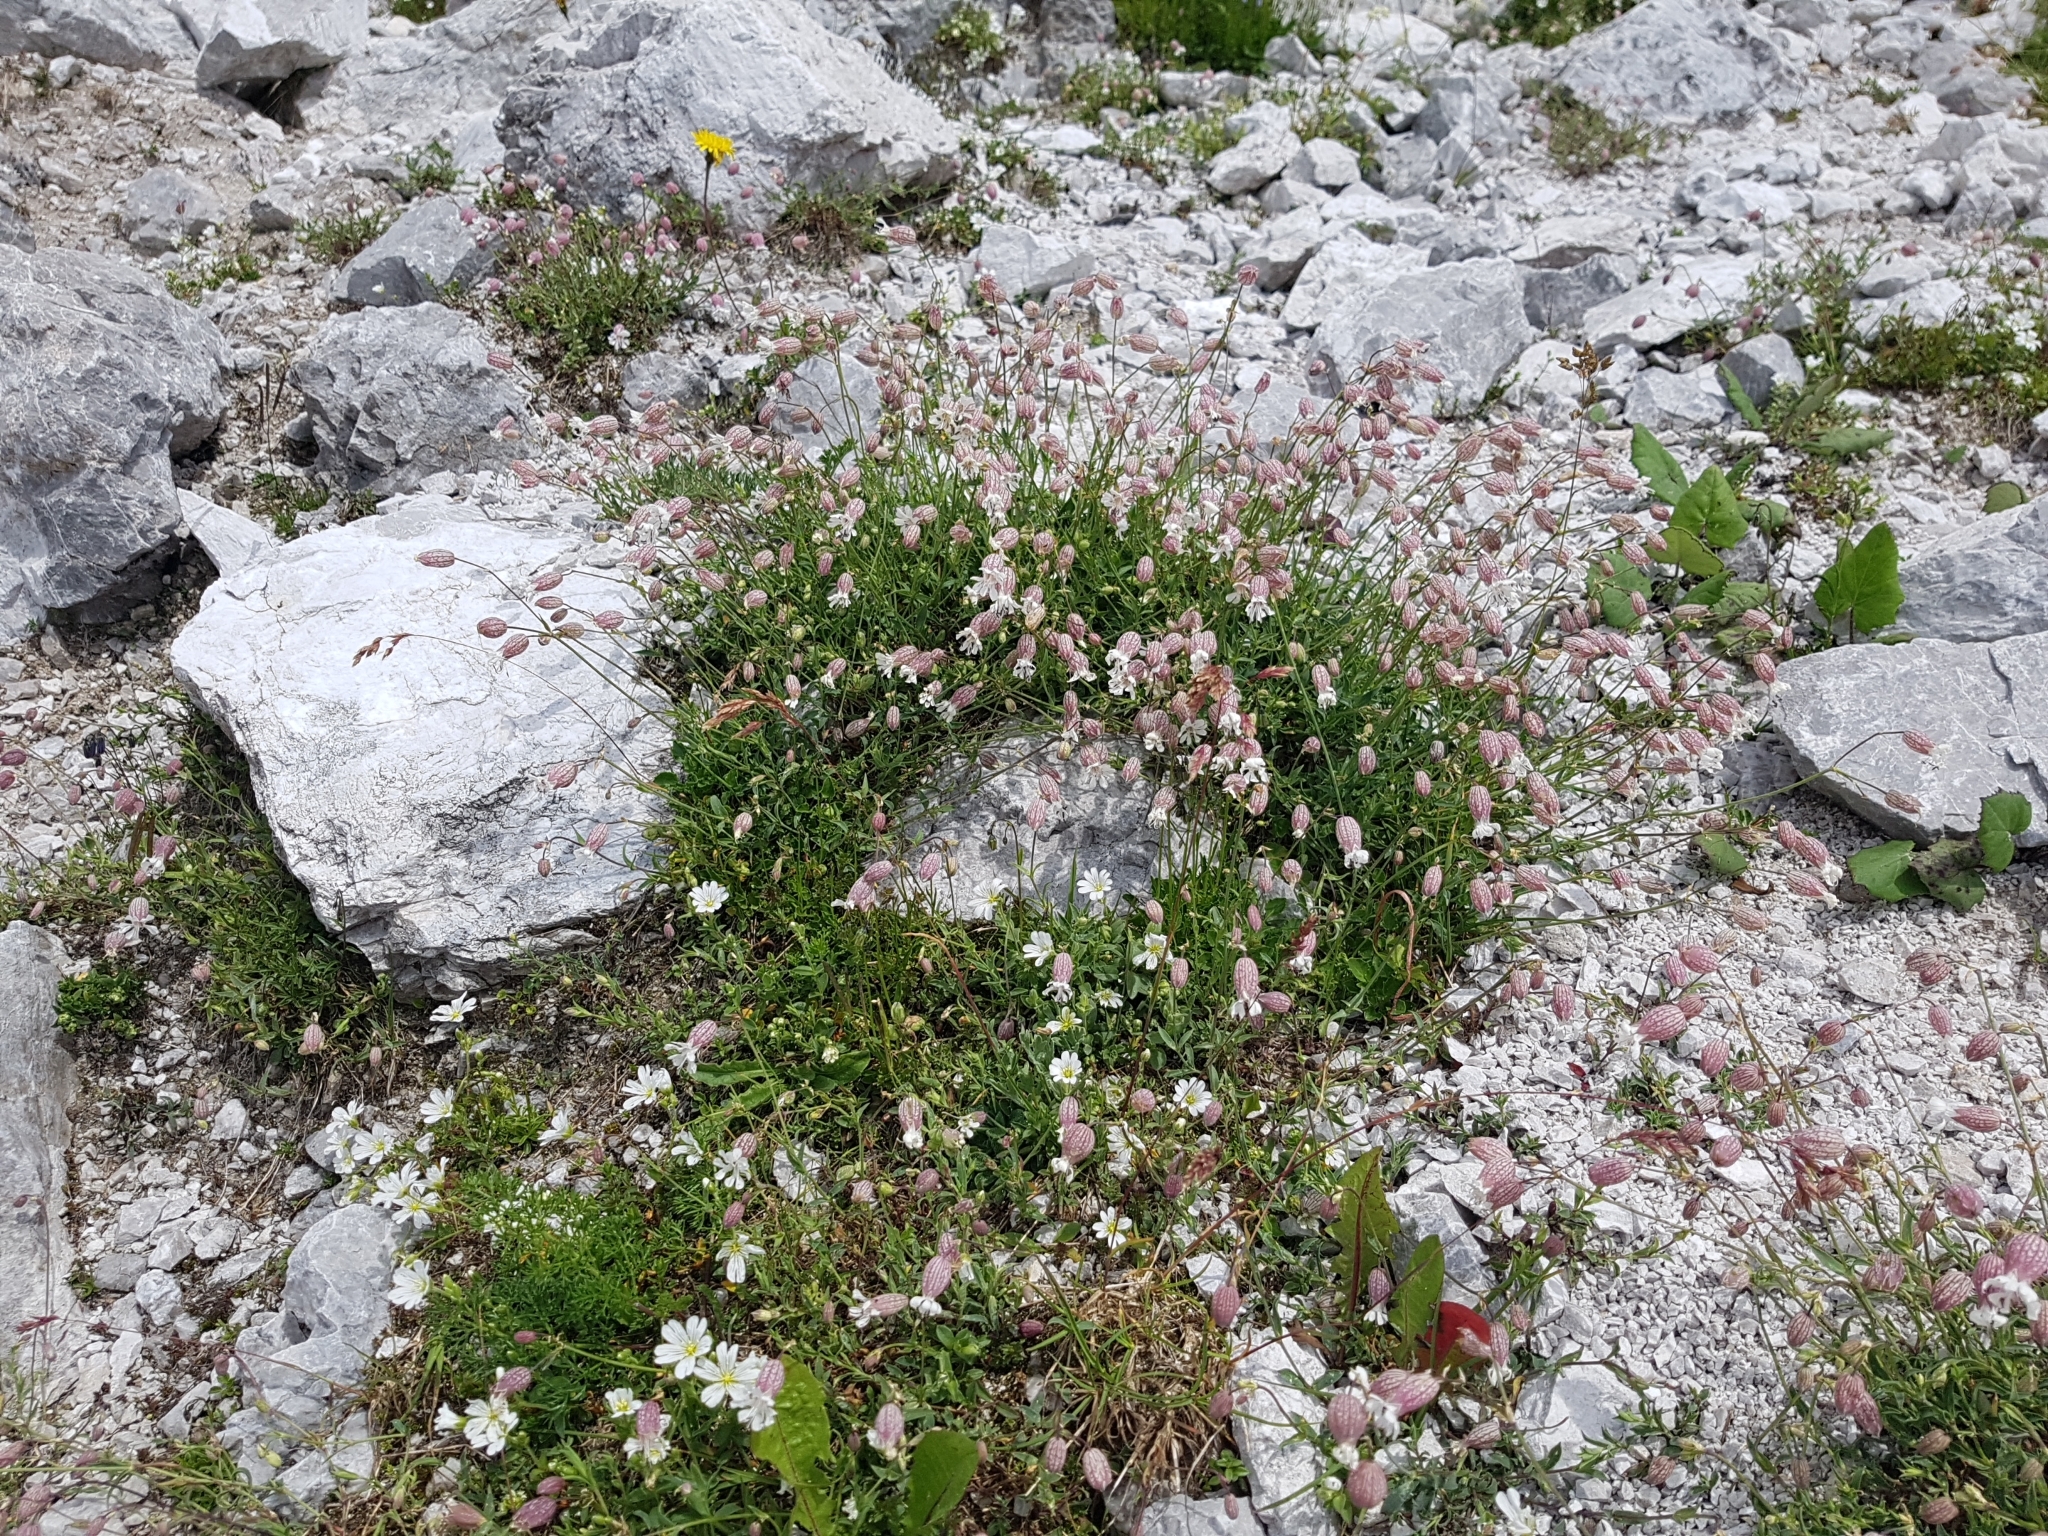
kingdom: Plantae
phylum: Tracheophyta
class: Magnoliopsida
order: Caryophyllales
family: Caryophyllaceae
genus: Silene
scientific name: Silene vulgaris
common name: Bladder campion
